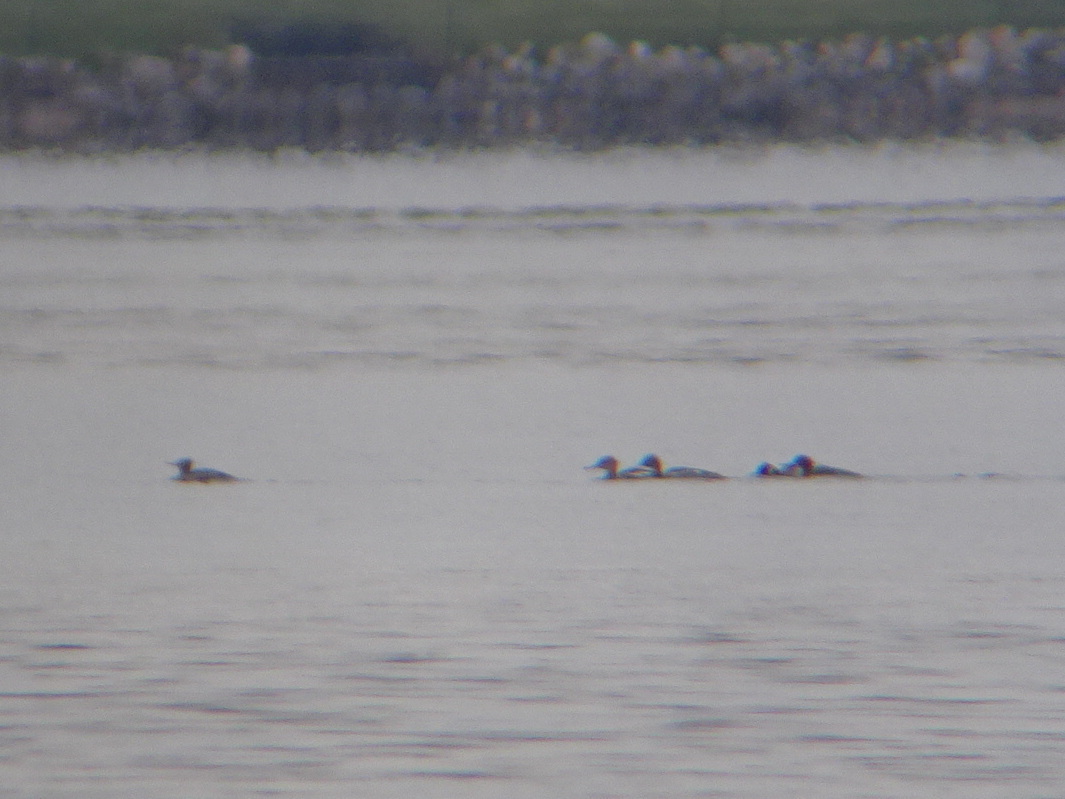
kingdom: Animalia
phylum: Chordata
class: Aves
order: Anseriformes
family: Anatidae
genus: Mergus
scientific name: Mergus serrator
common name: Red-breasted merganser
